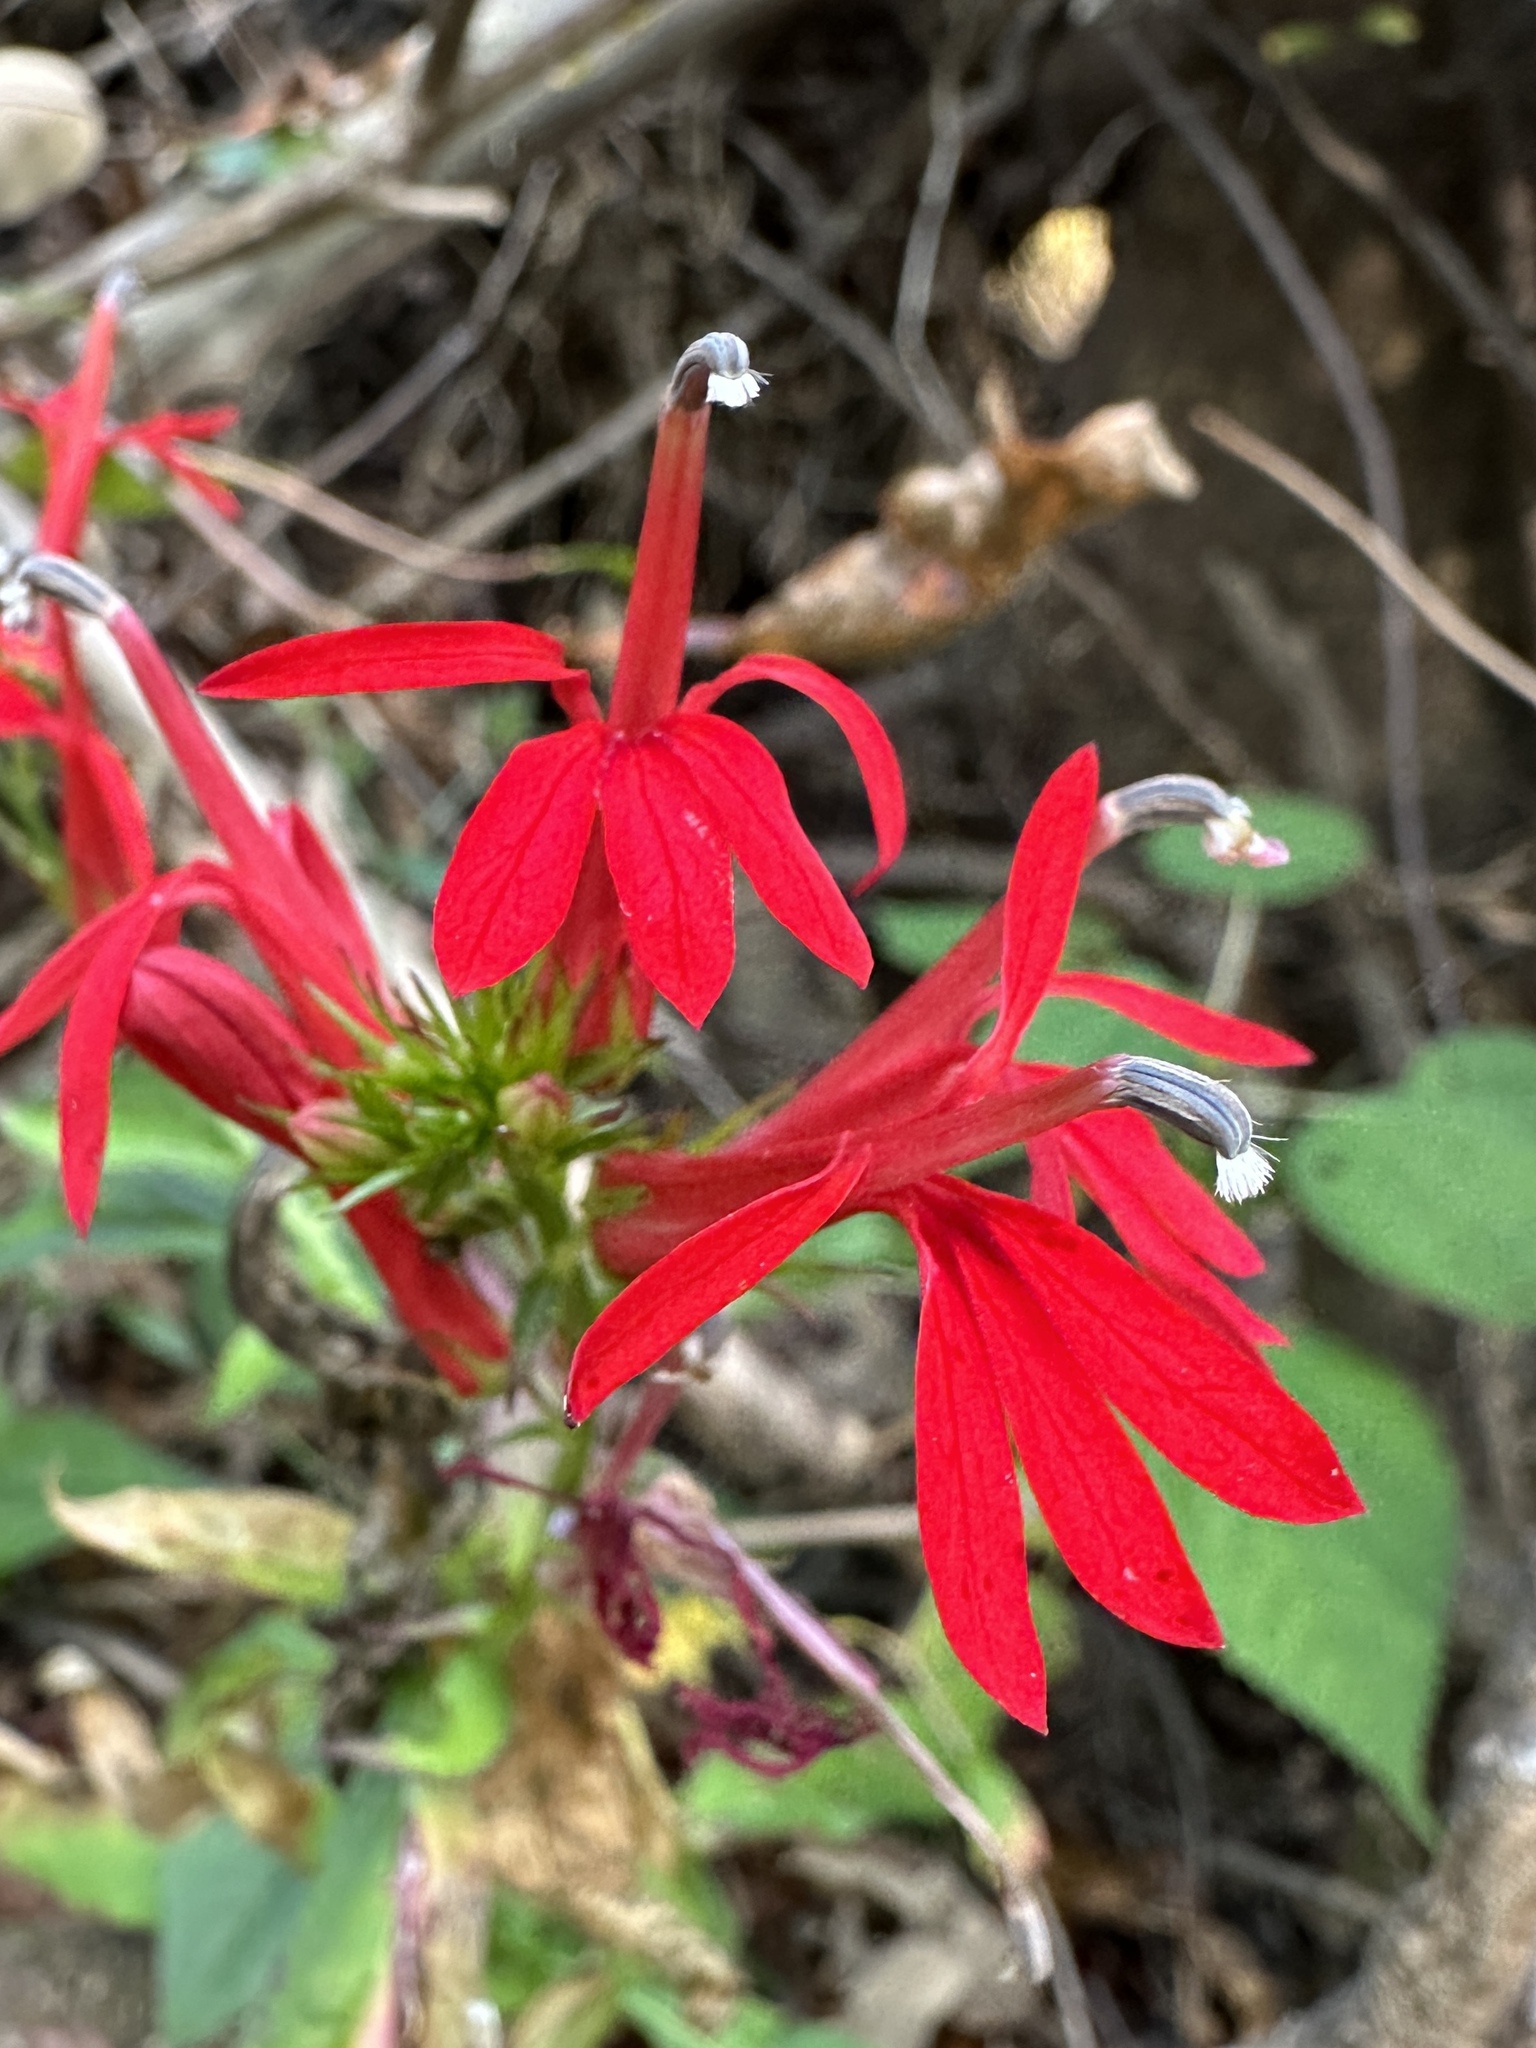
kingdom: Plantae
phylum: Tracheophyta
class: Magnoliopsida
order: Asterales
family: Campanulaceae
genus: Lobelia
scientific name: Lobelia cardinalis
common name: Cardinal flower
